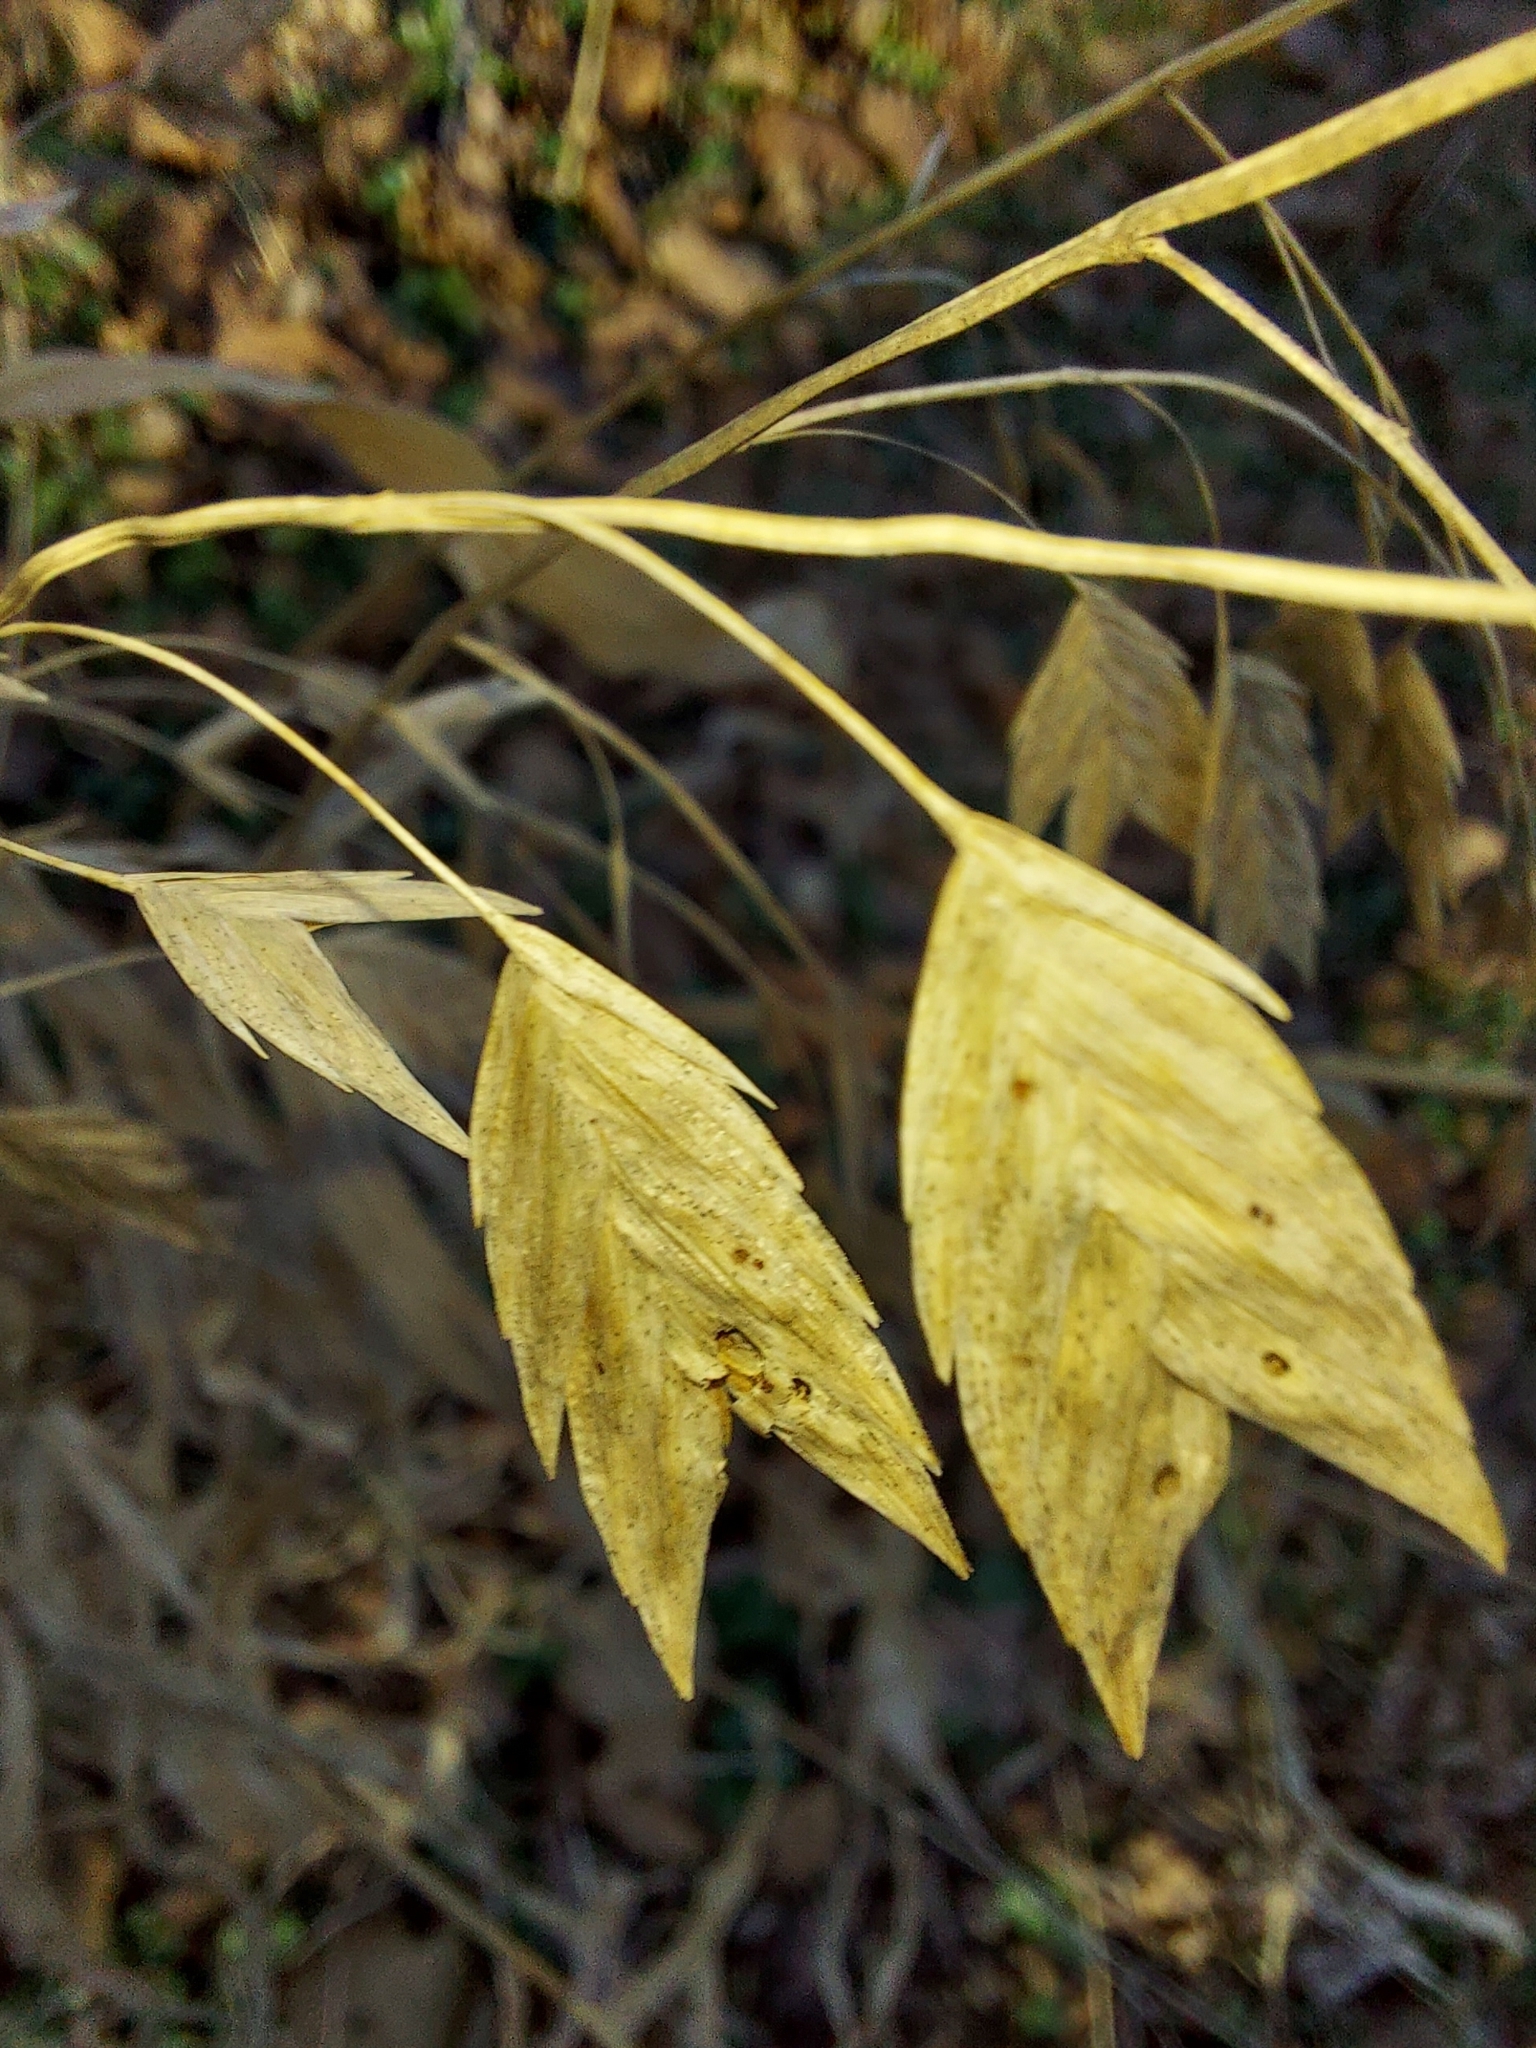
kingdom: Plantae
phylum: Tracheophyta
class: Liliopsida
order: Poales
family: Poaceae
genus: Chasmanthium
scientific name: Chasmanthium latifolium
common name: Broad-leaved chasmanthium
